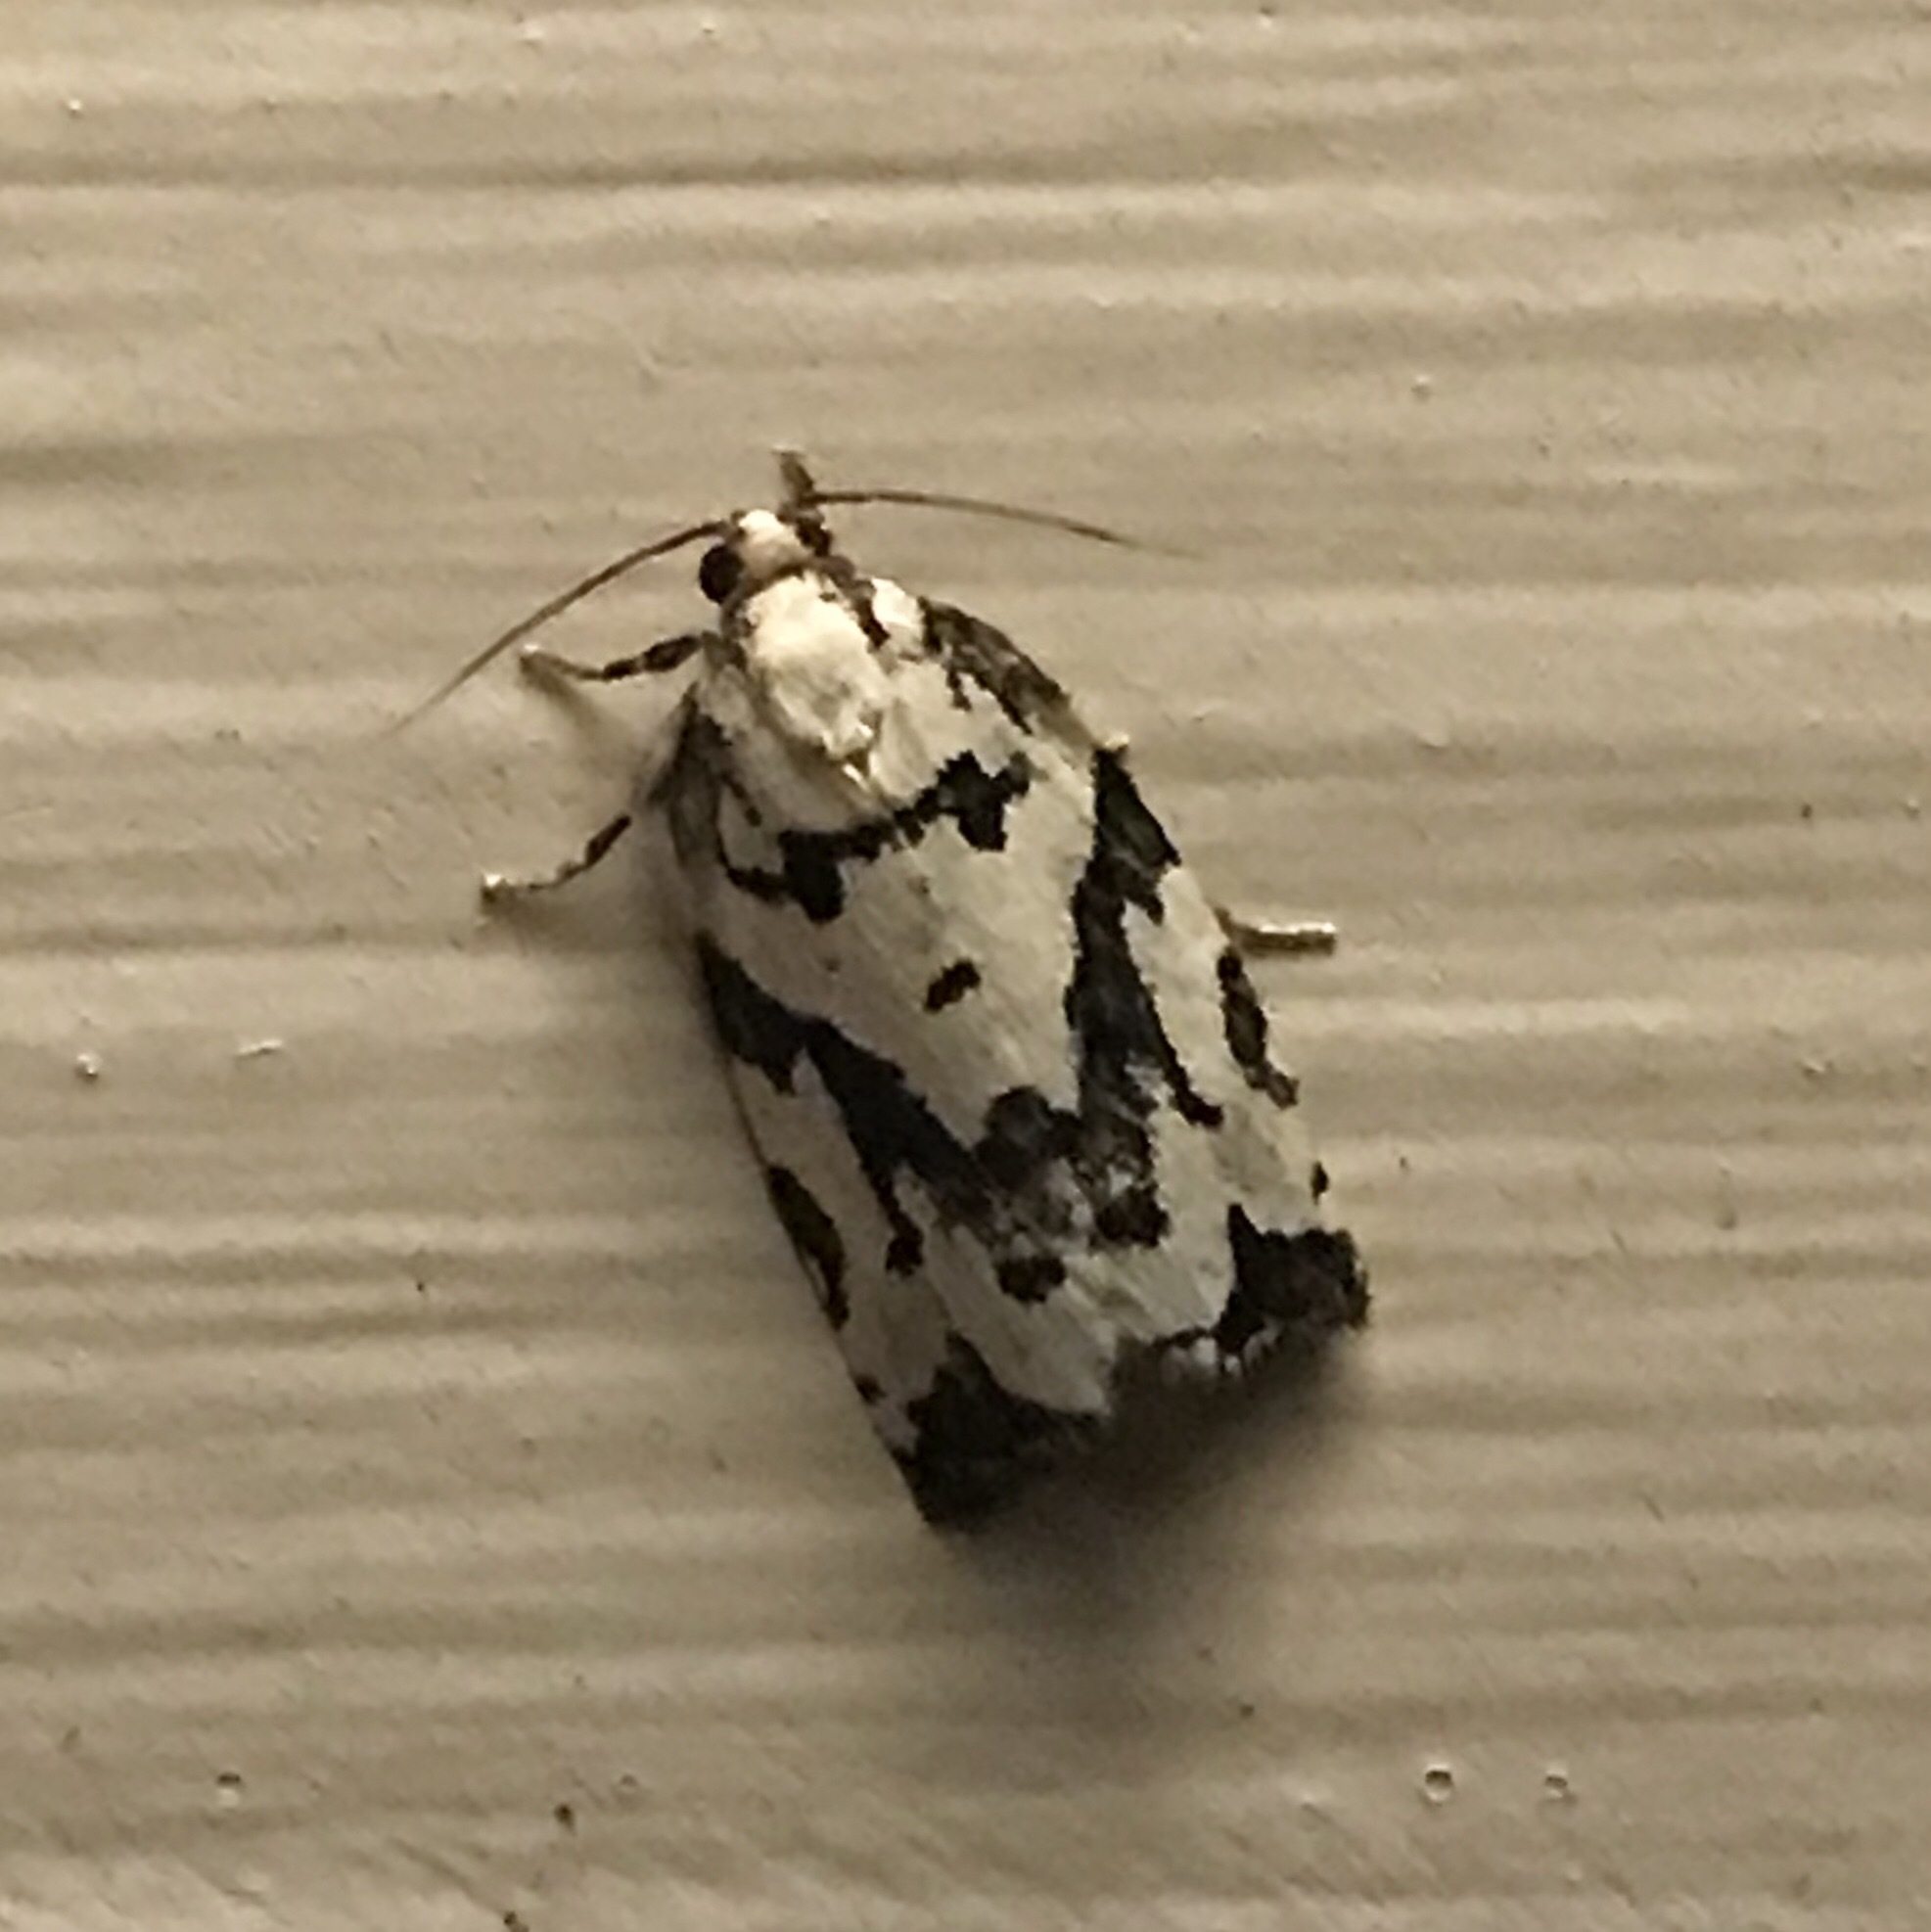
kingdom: Animalia
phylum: Arthropoda
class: Insecta
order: Lepidoptera
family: Tortricidae
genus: Archips
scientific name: Archips dissitana
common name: Boldly-marked archips moth
